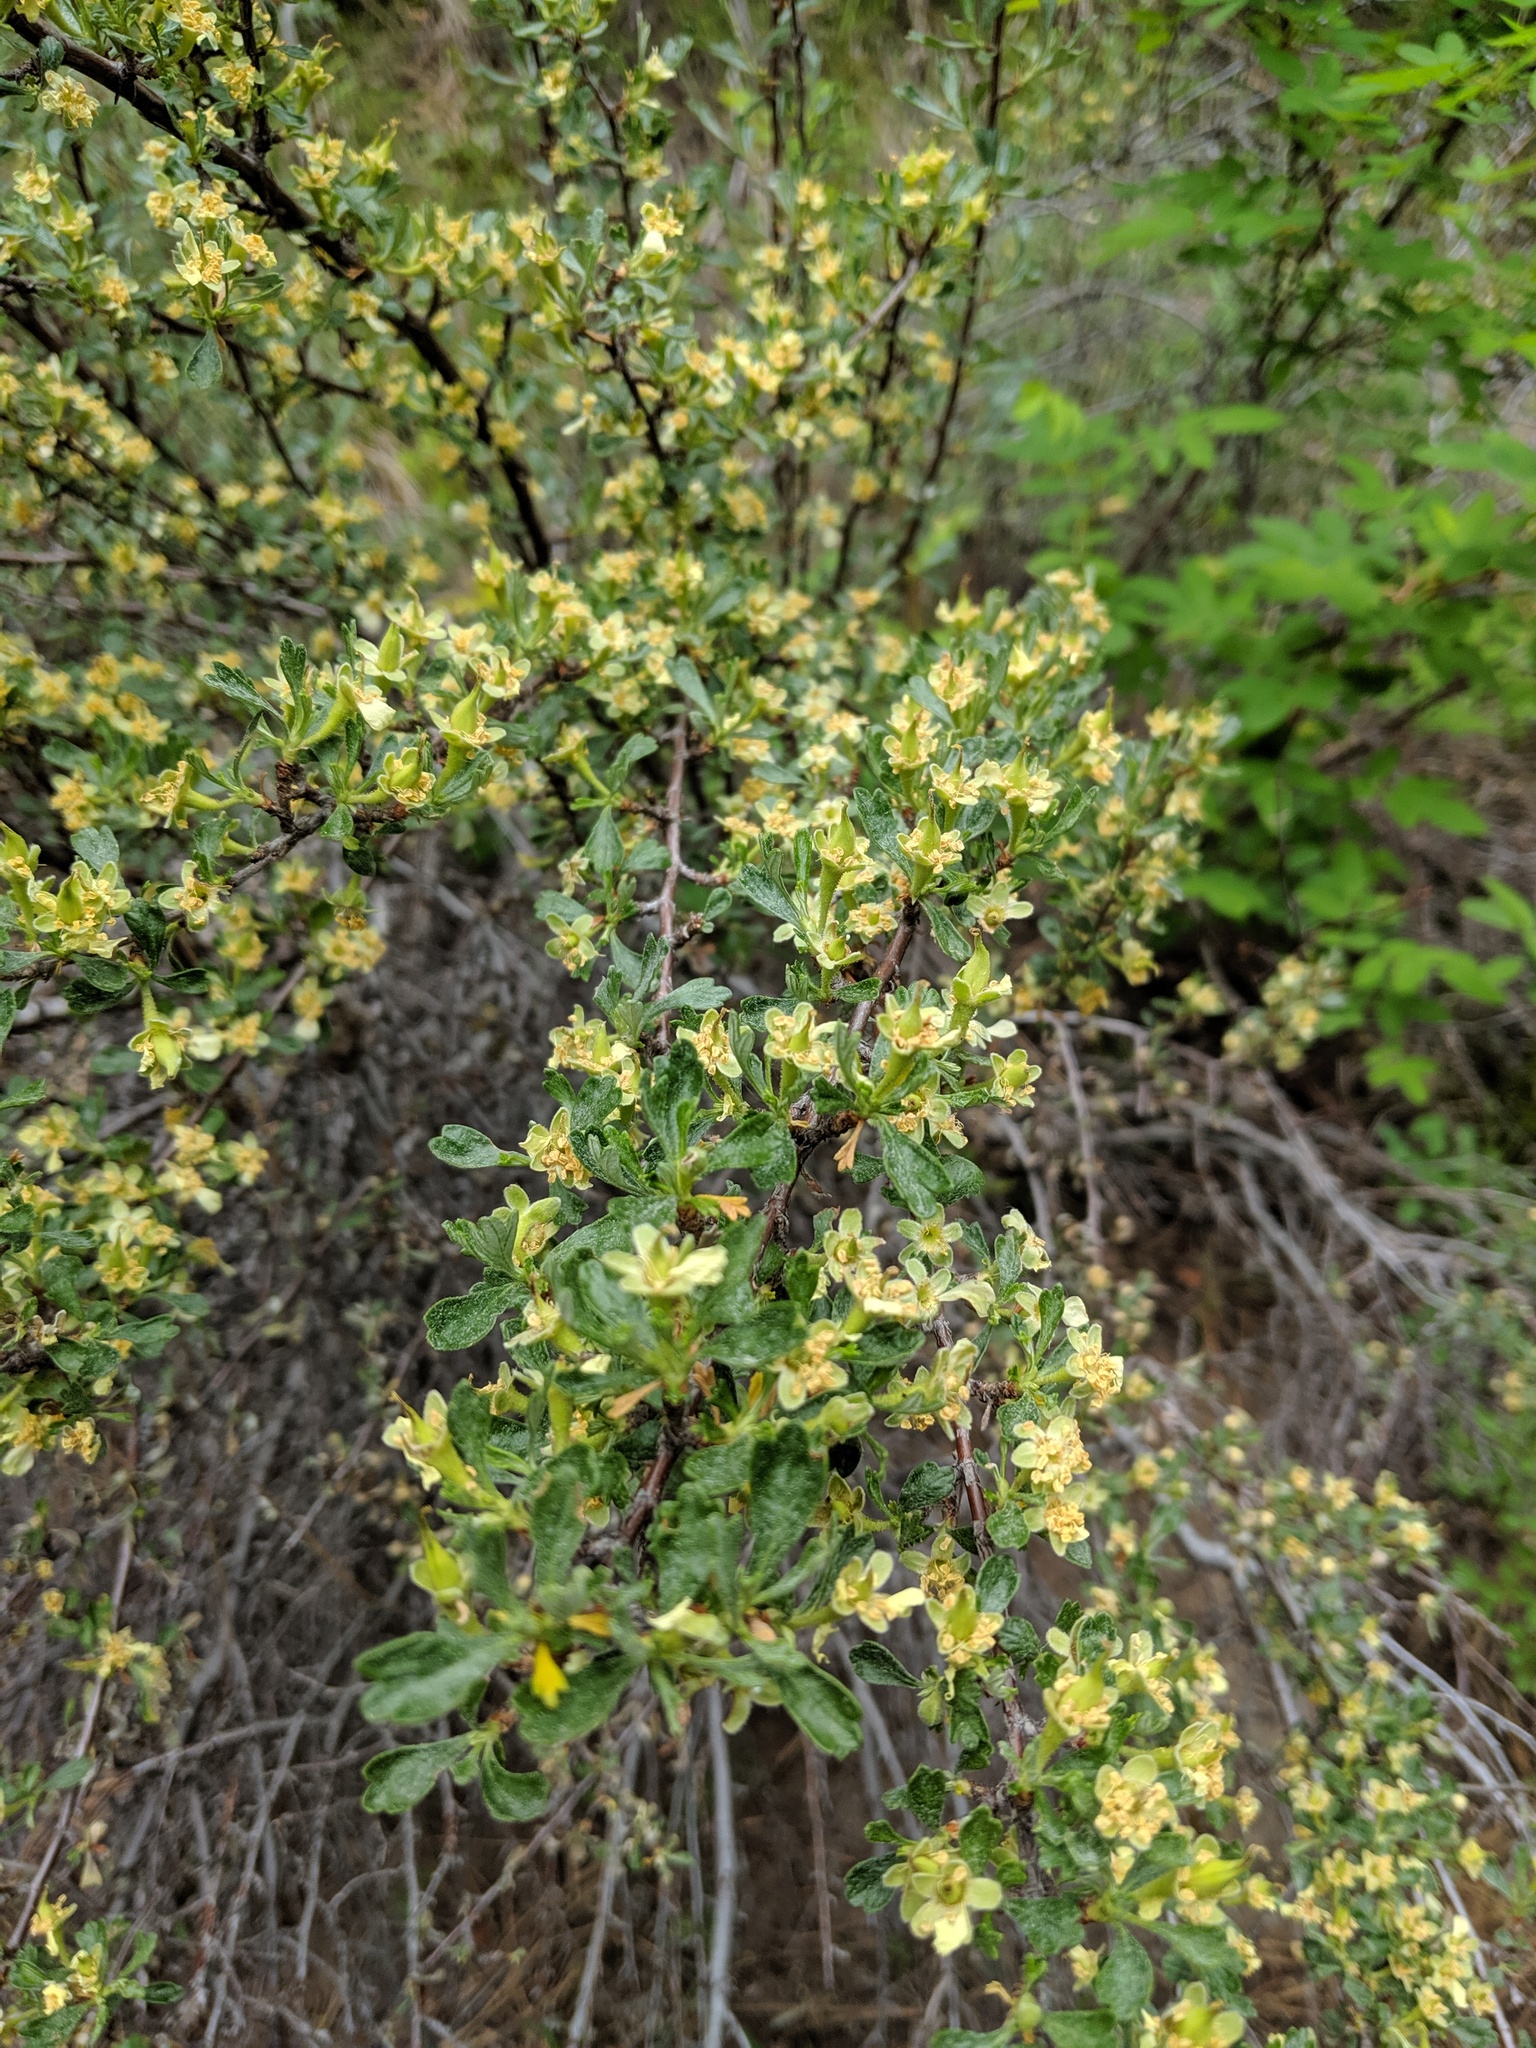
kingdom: Plantae
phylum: Tracheophyta
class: Magnoliopsida
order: Rosales
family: Rosaceae
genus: Purshia
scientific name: Purshia tridentata
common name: Antelope bitterbrush
